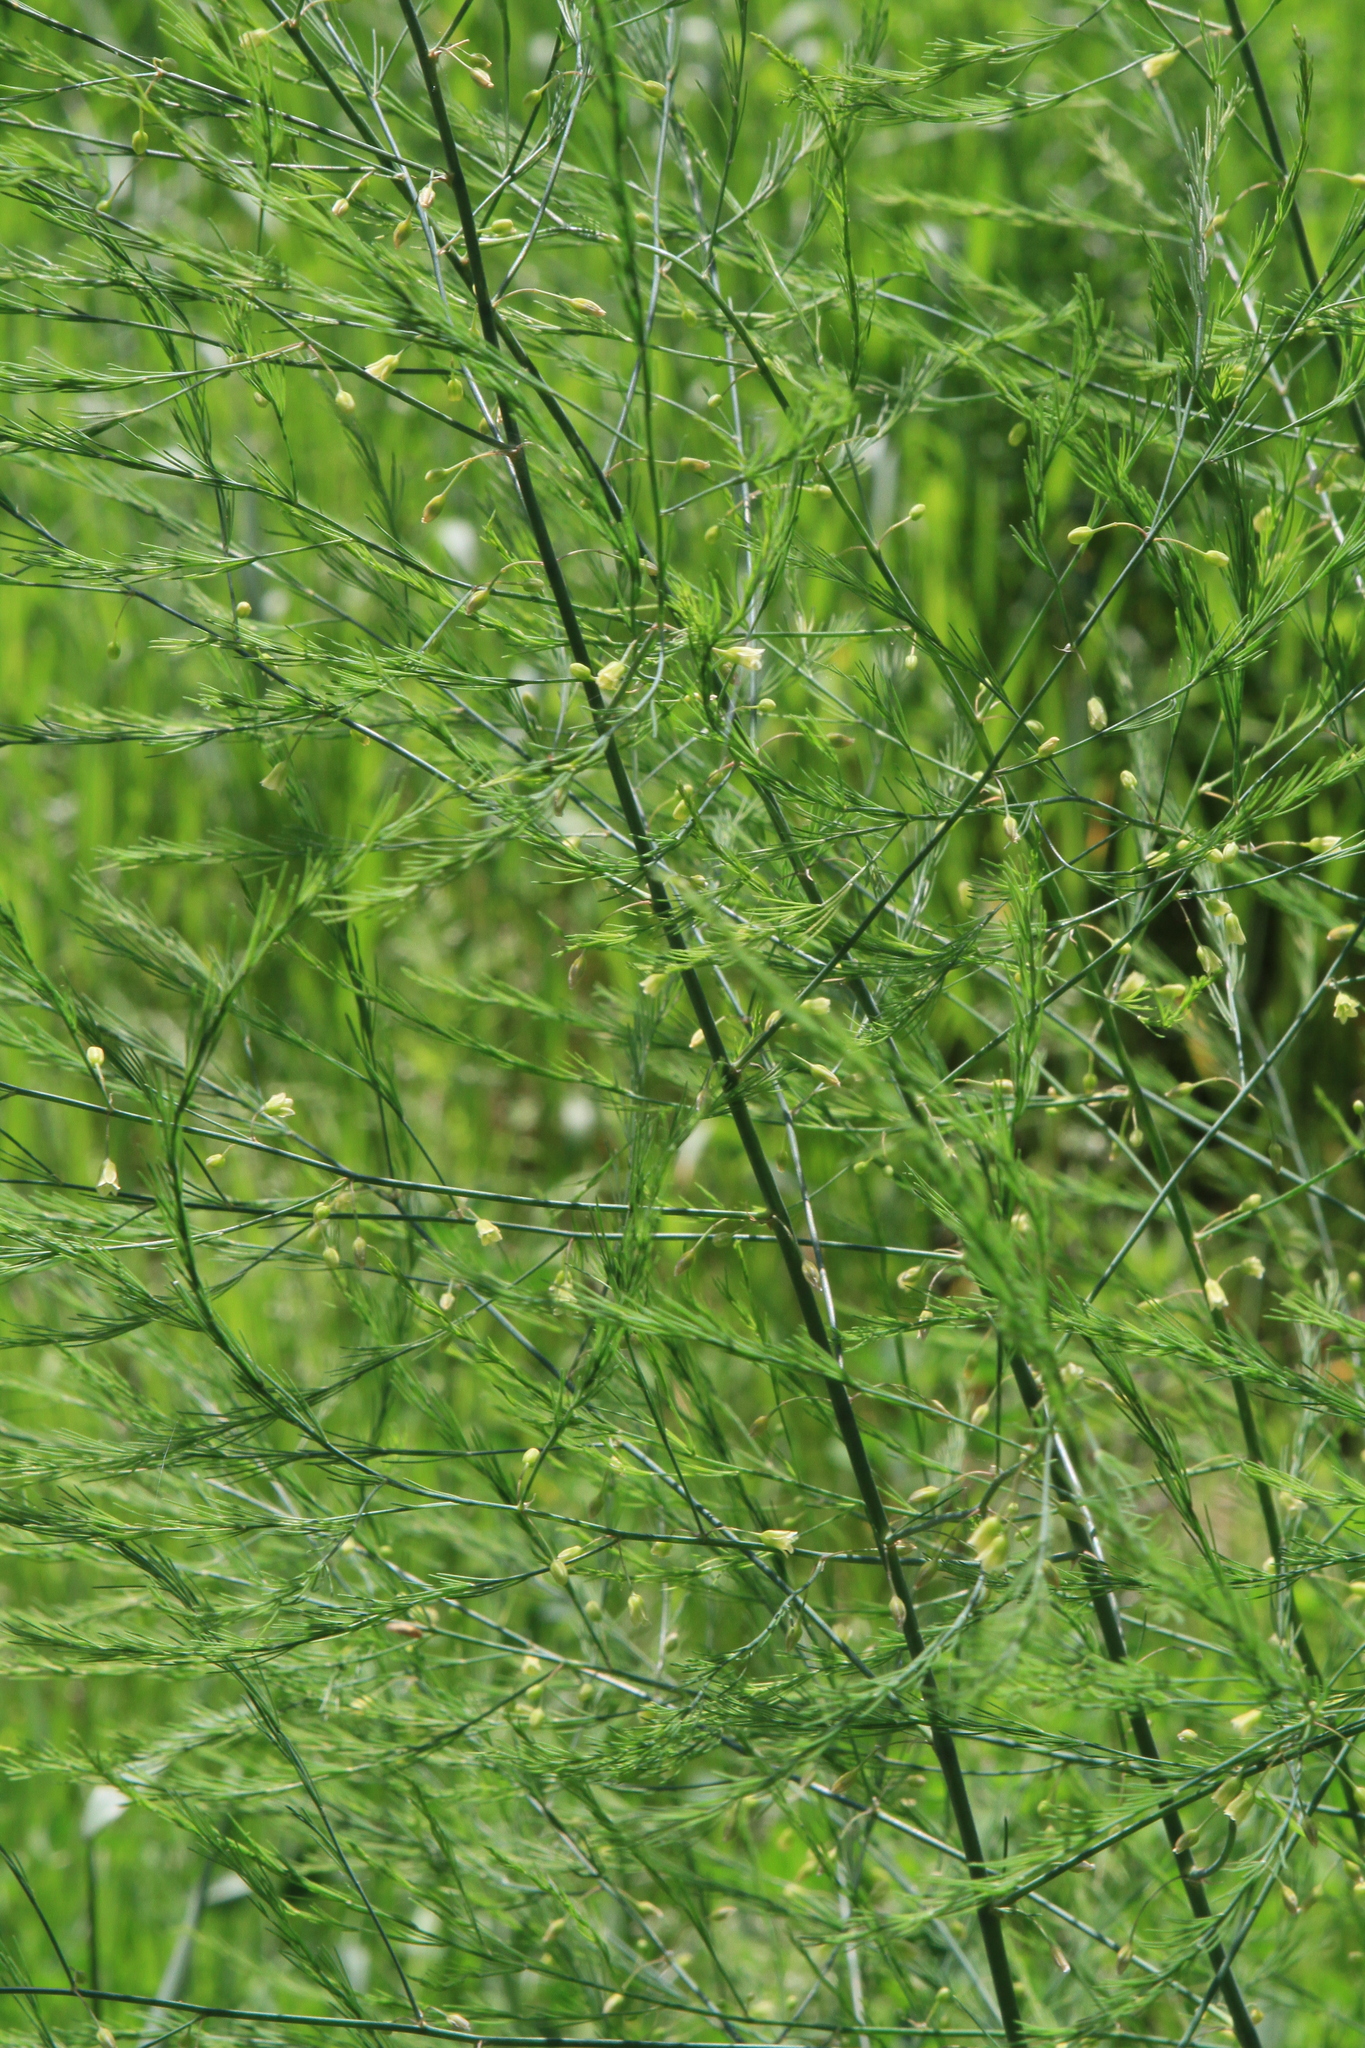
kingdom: Plantae
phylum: Tracheophyta
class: Liliopsida
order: Asparagales
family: Asparagaceae
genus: Asparagus
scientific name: Asparagus officinalis
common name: Garden asparagus
